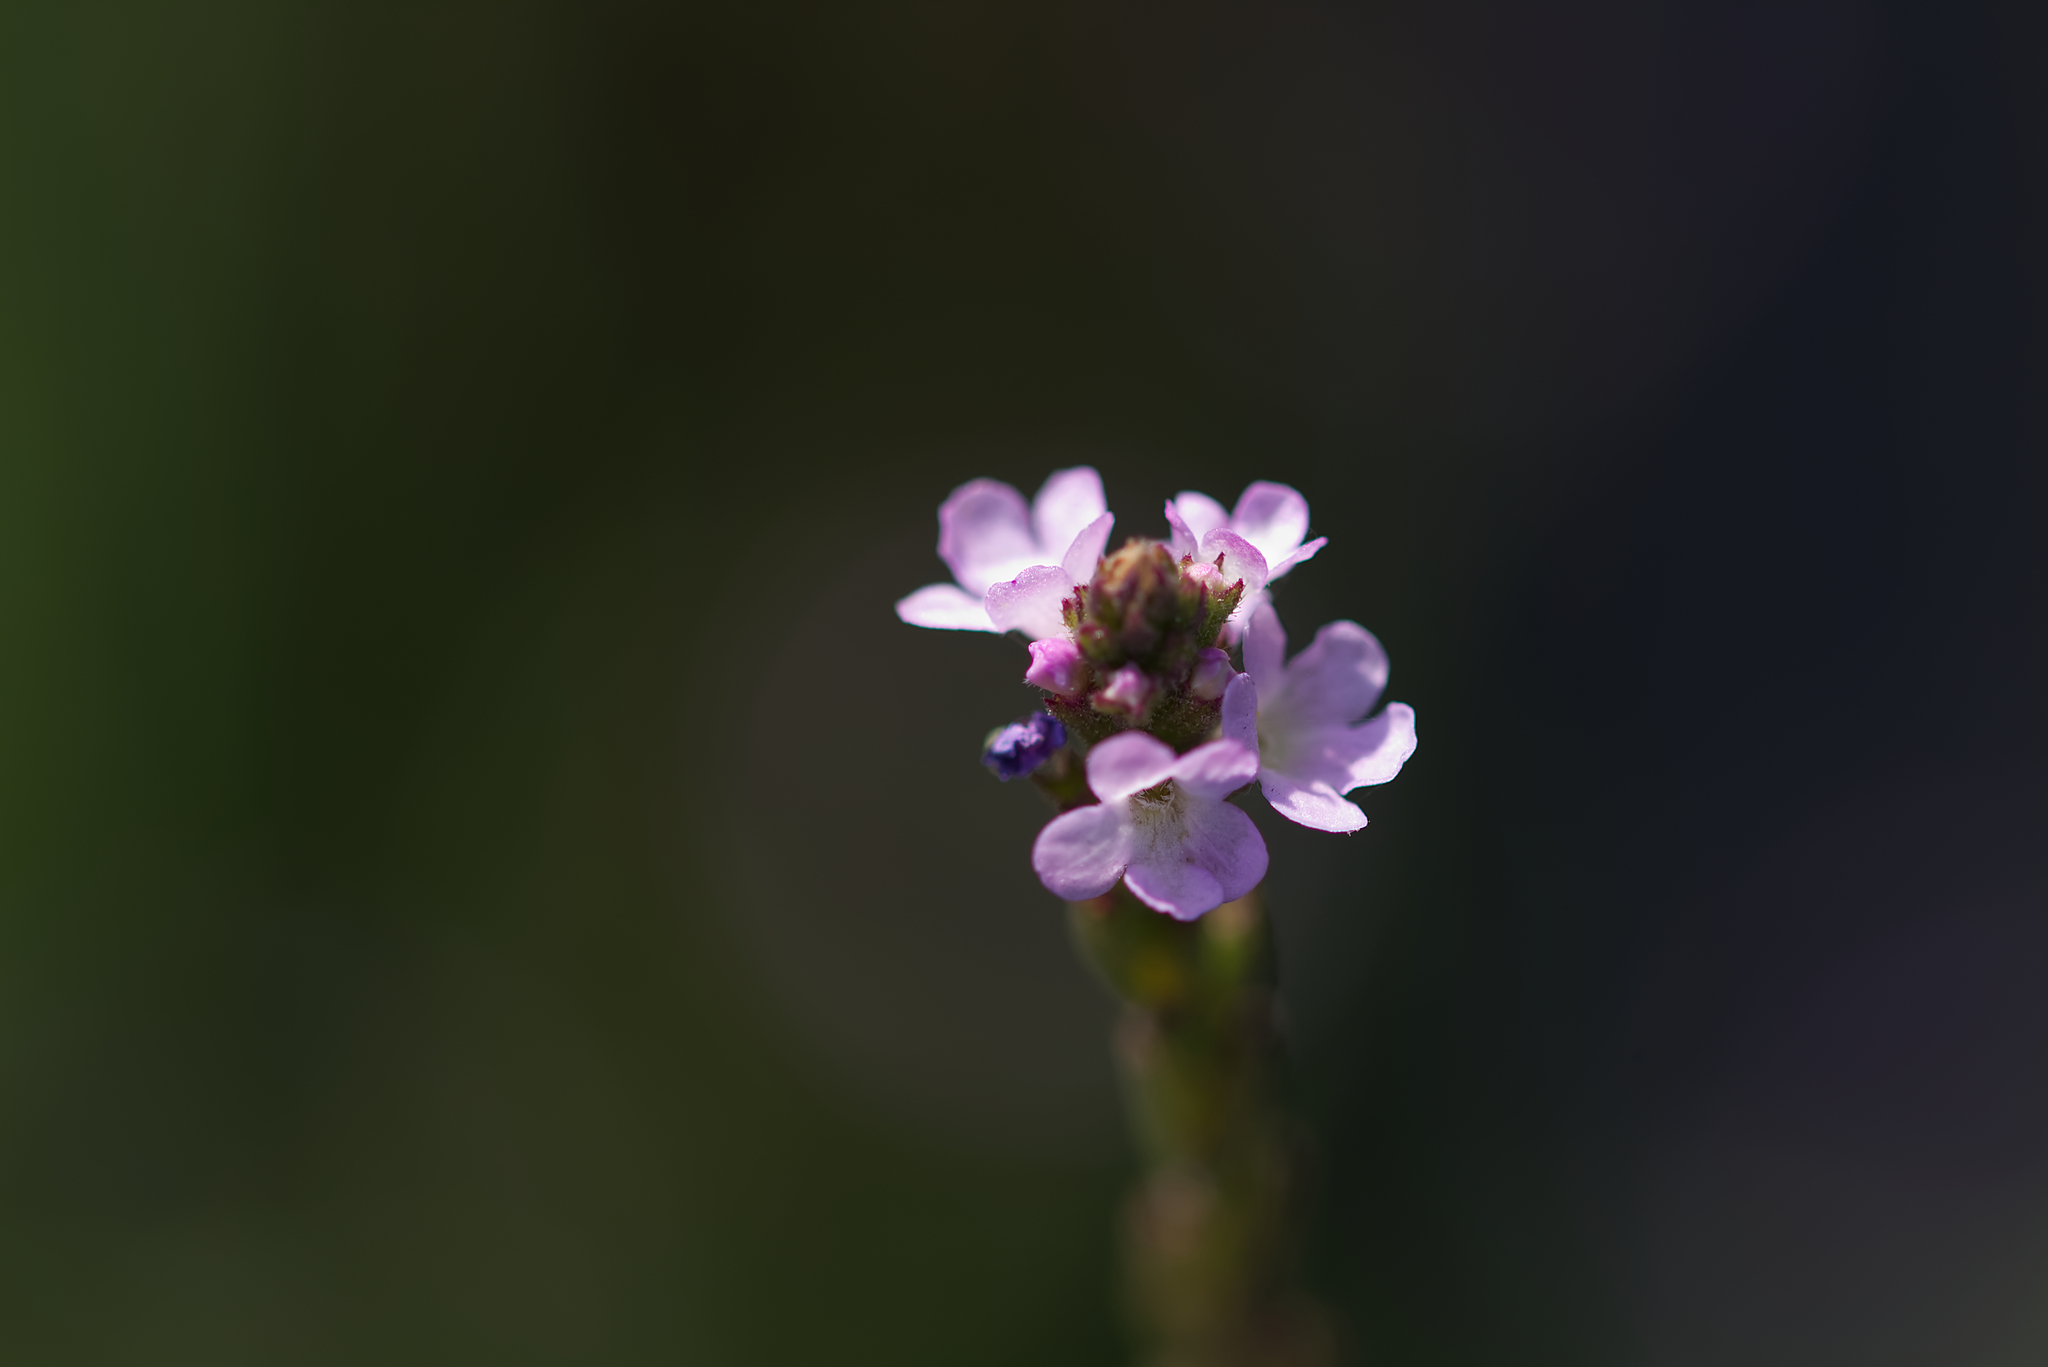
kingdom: Plantae
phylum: Tracheophyta
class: Magnoliopsida
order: Lamiales
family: Verbenaceae
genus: Verbena
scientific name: Verbena officinalis
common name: Vervain
